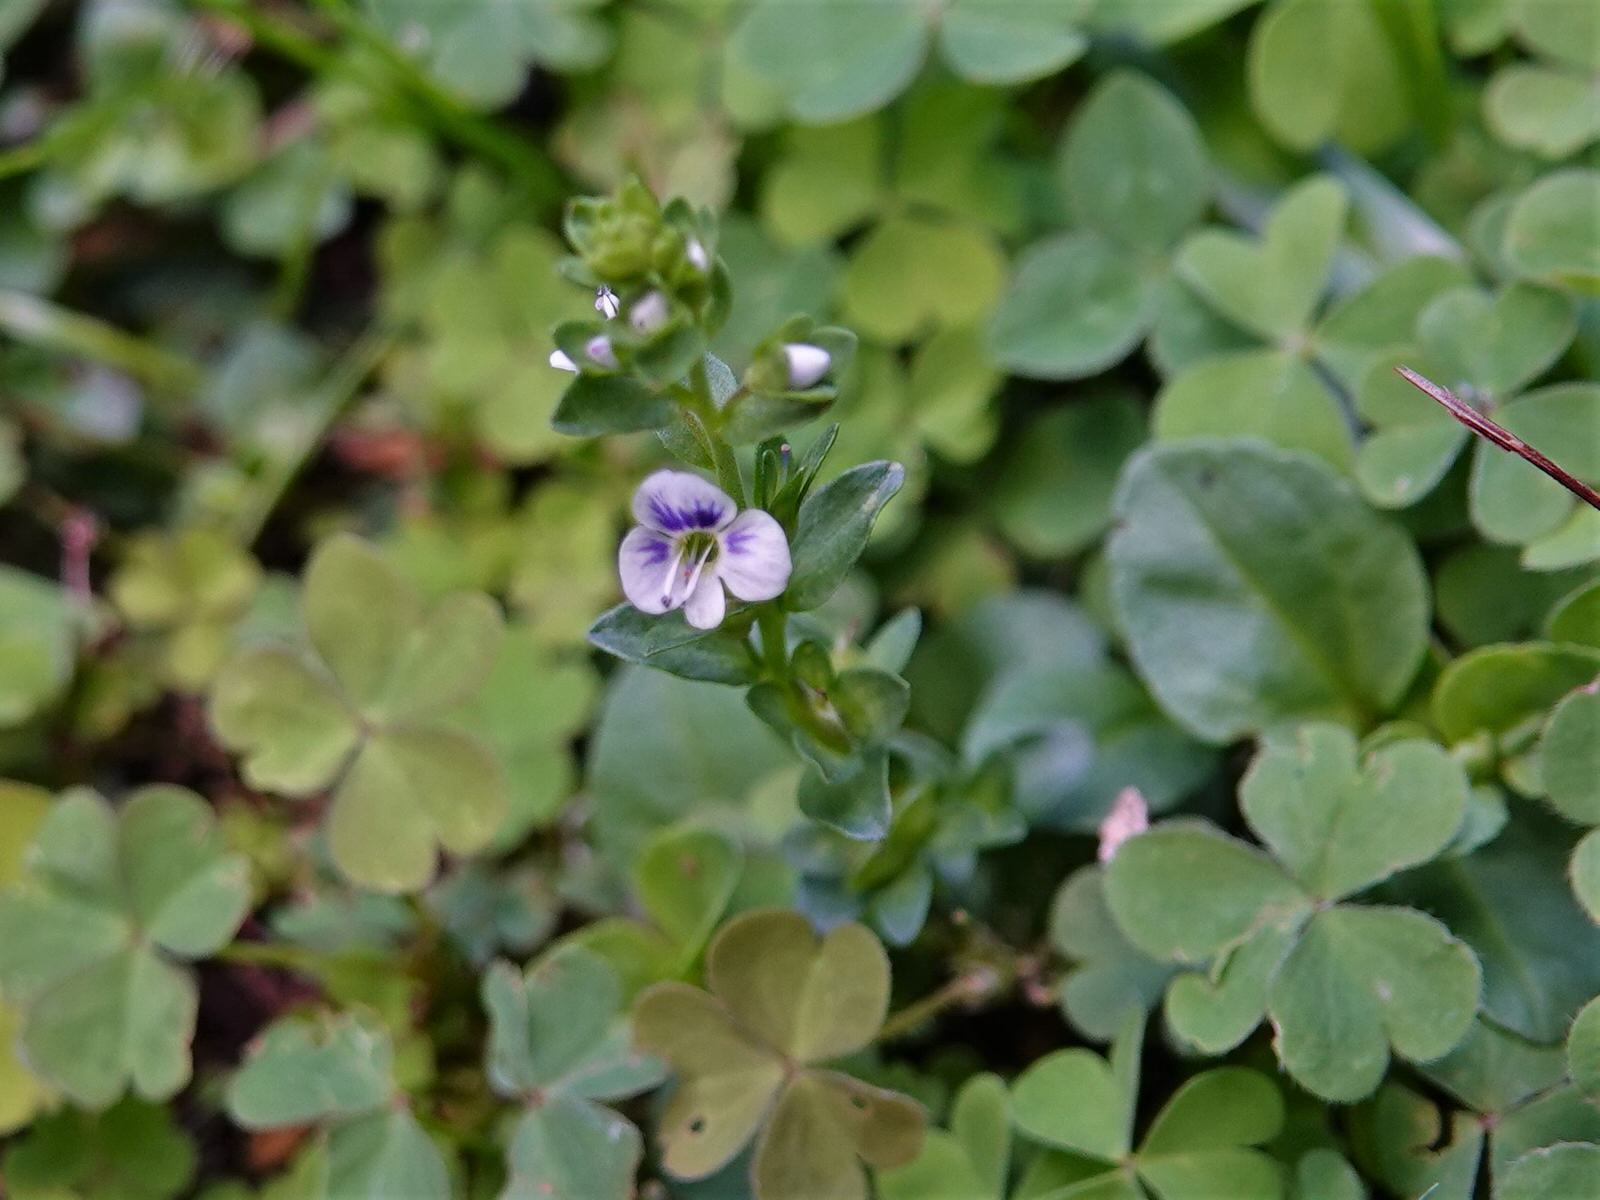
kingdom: Plantae
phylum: Tracheophyta
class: Magnoliopsida
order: Lamiales
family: Plantaginaceae
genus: Veronica
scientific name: Veronica serpyllifolia
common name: Thyme-leaved speedwell
